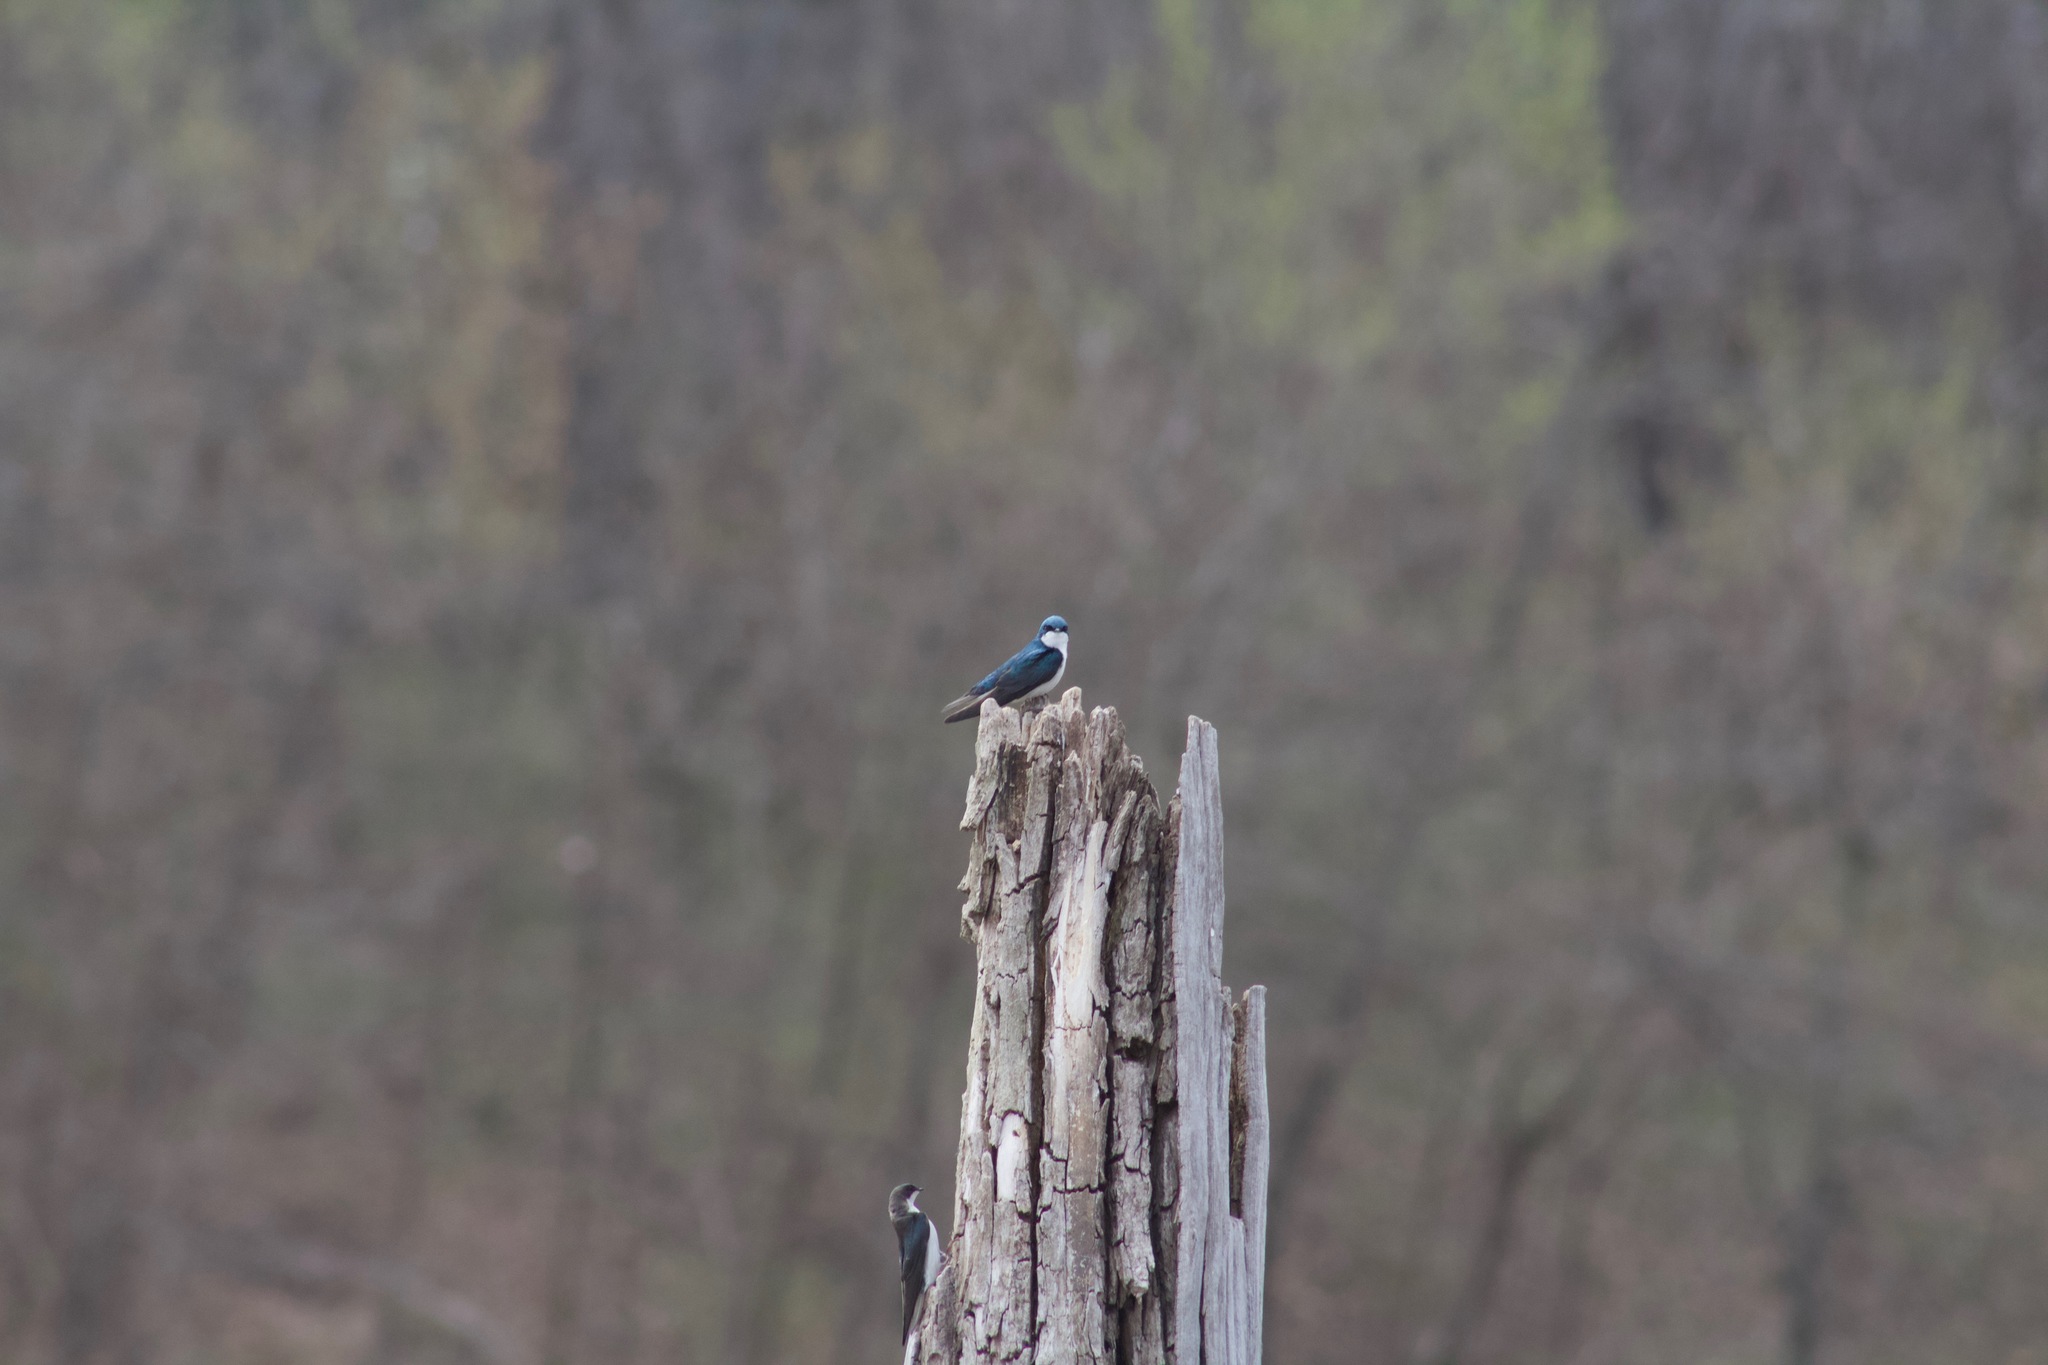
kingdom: Animalia
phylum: Chordata
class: Aves
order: Passeriformes
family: Hirundinidae
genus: Tachycineta
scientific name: Tachycineta bicolor
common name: Tree swallow
